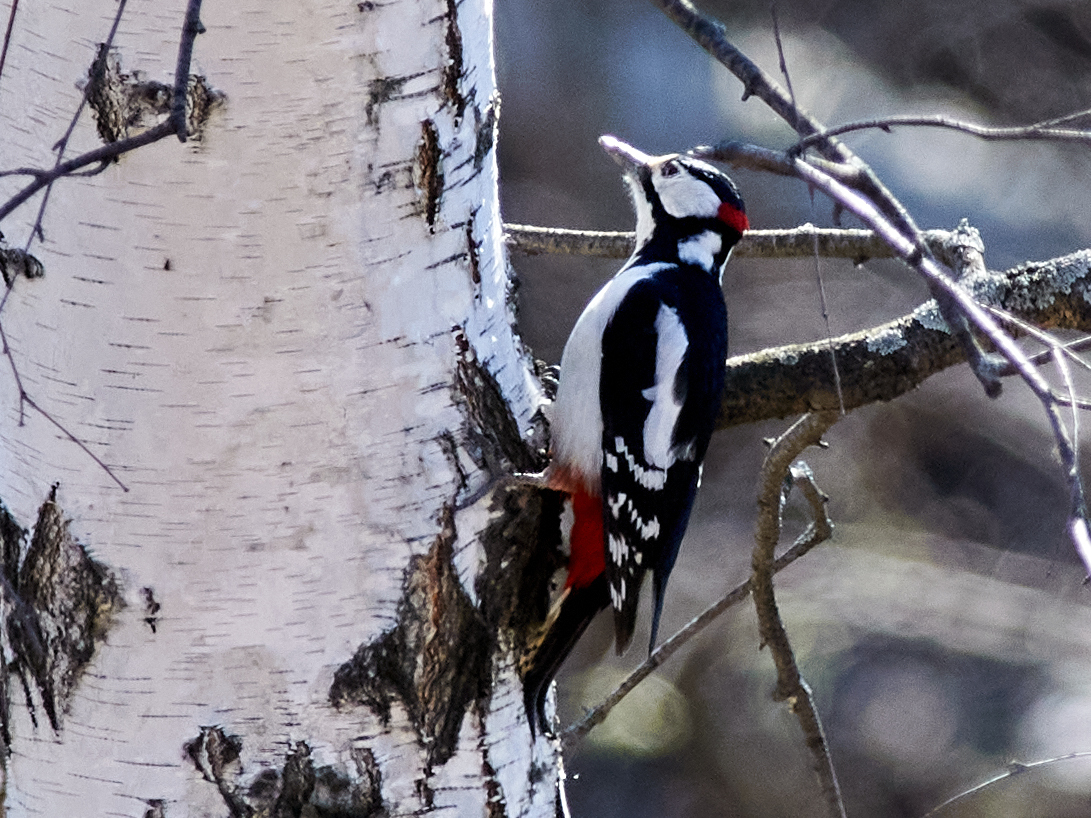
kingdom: Animalia
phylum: Chordata
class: Aves
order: Piciformes
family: Picidae
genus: Dendrocopos
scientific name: Dendrocopos major
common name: Great spotted woodpecker
